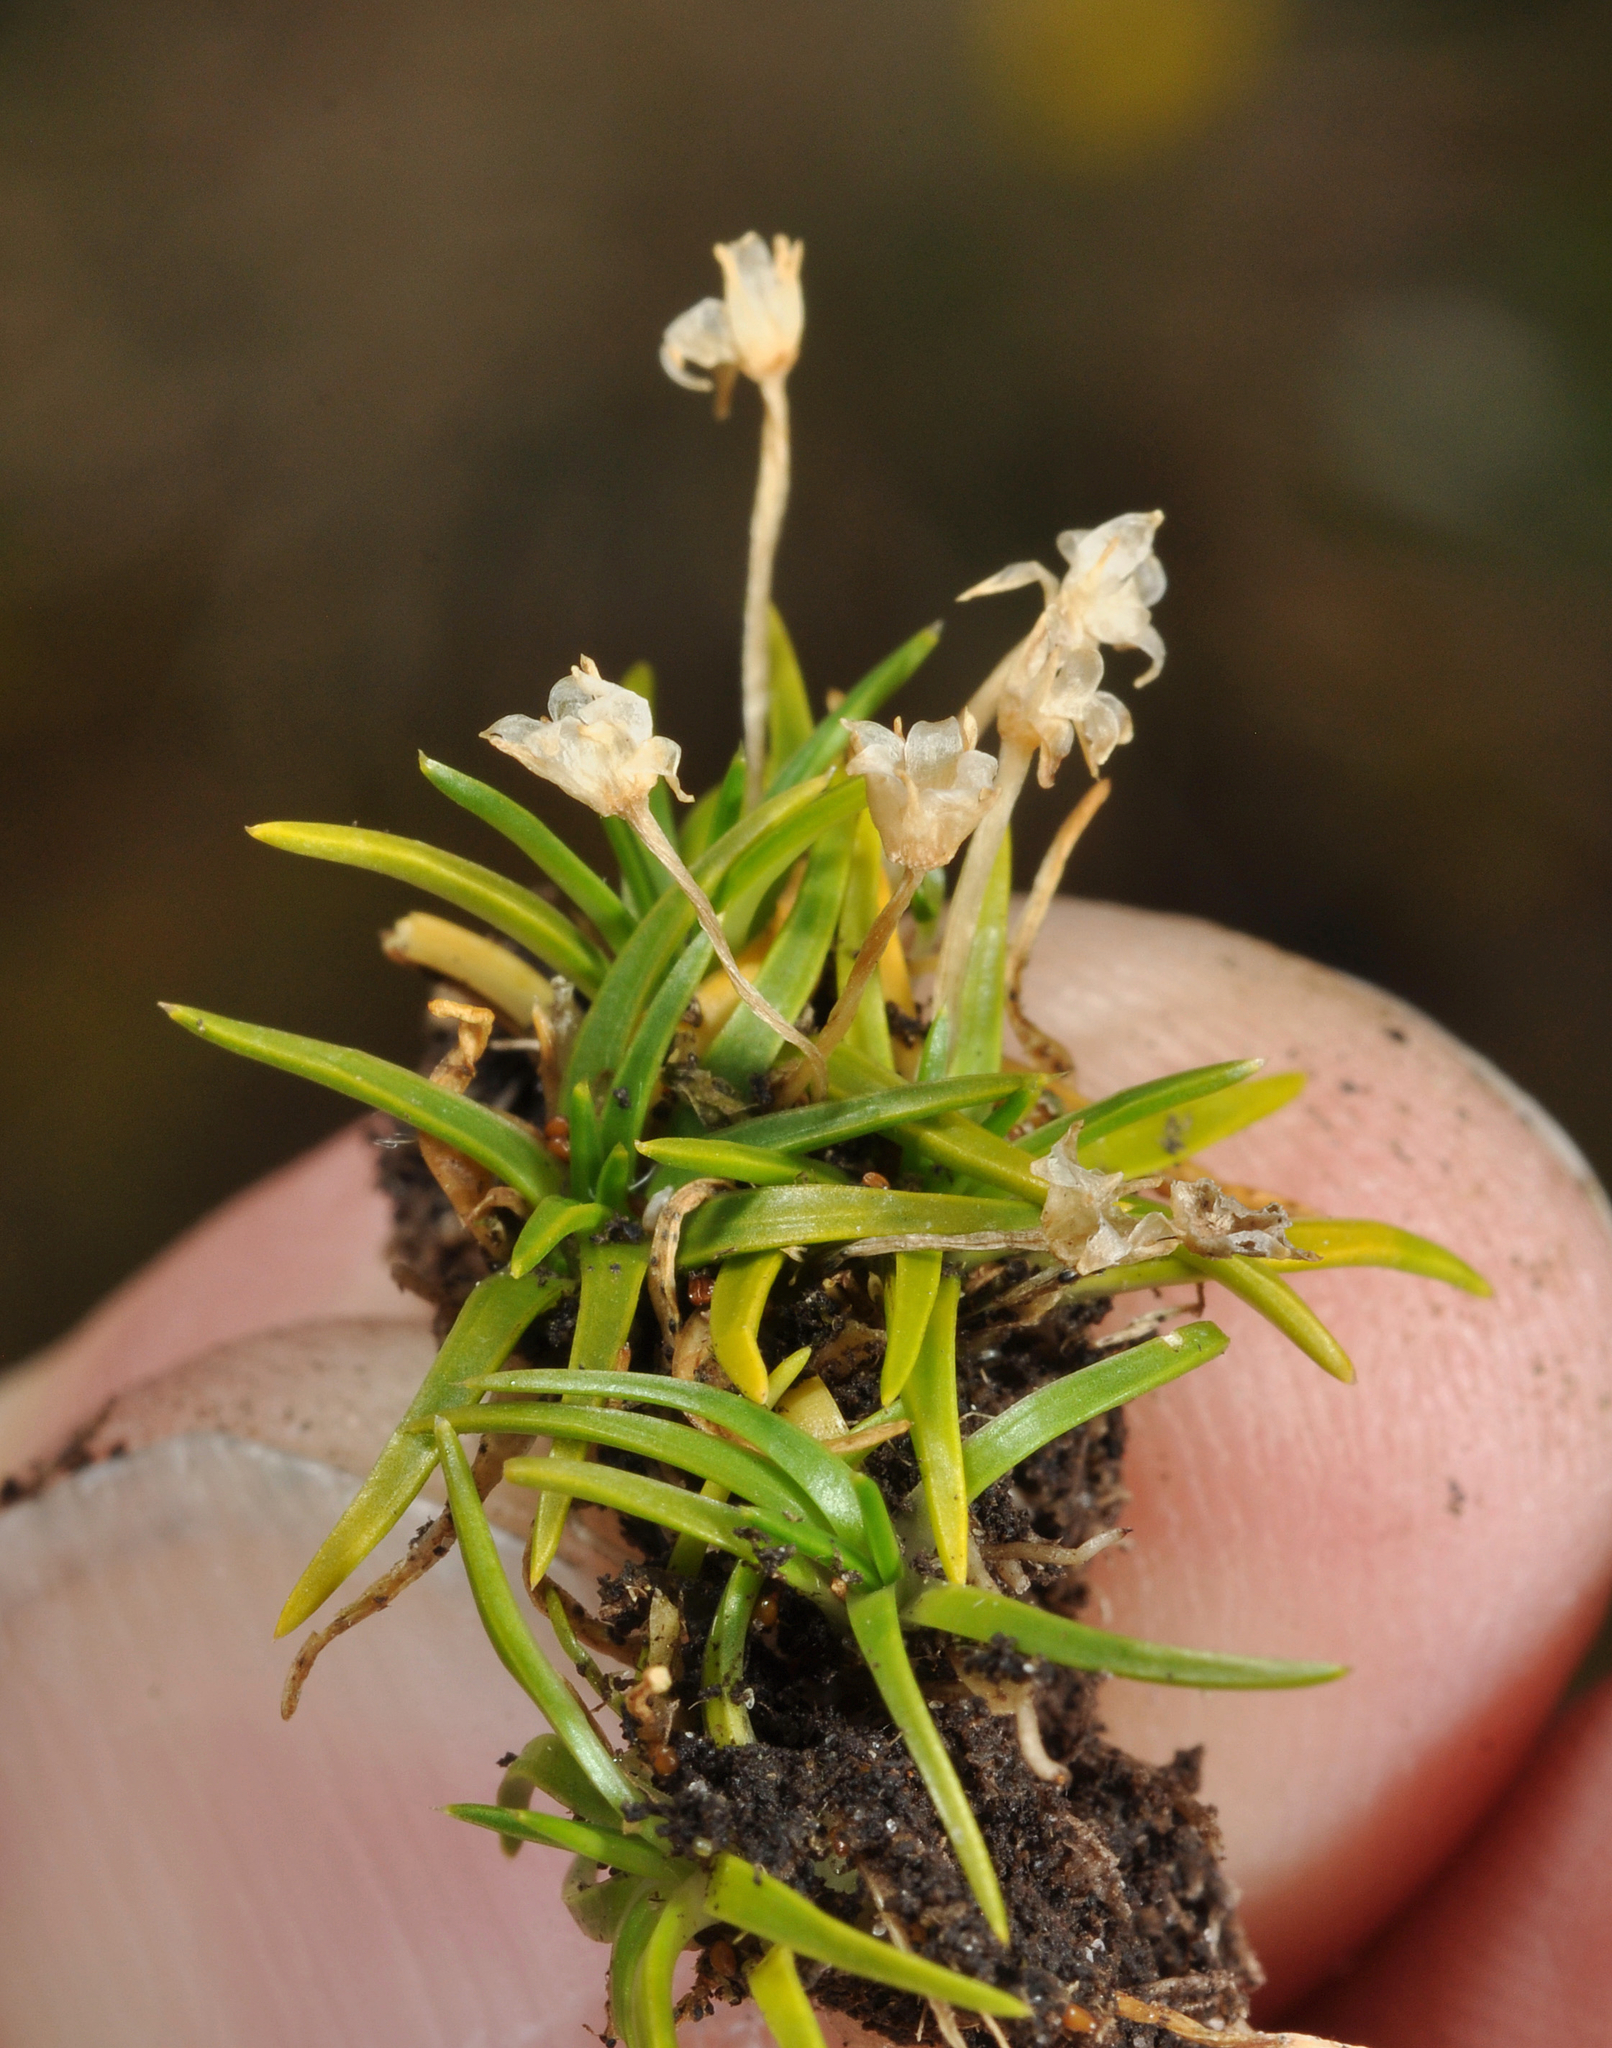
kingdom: Plantae
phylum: Tracheophyta
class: Magnoliopsida
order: Caryophyllales
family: Caryophyllaceae
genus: Colobanthus
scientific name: Colobanthus muelleri
